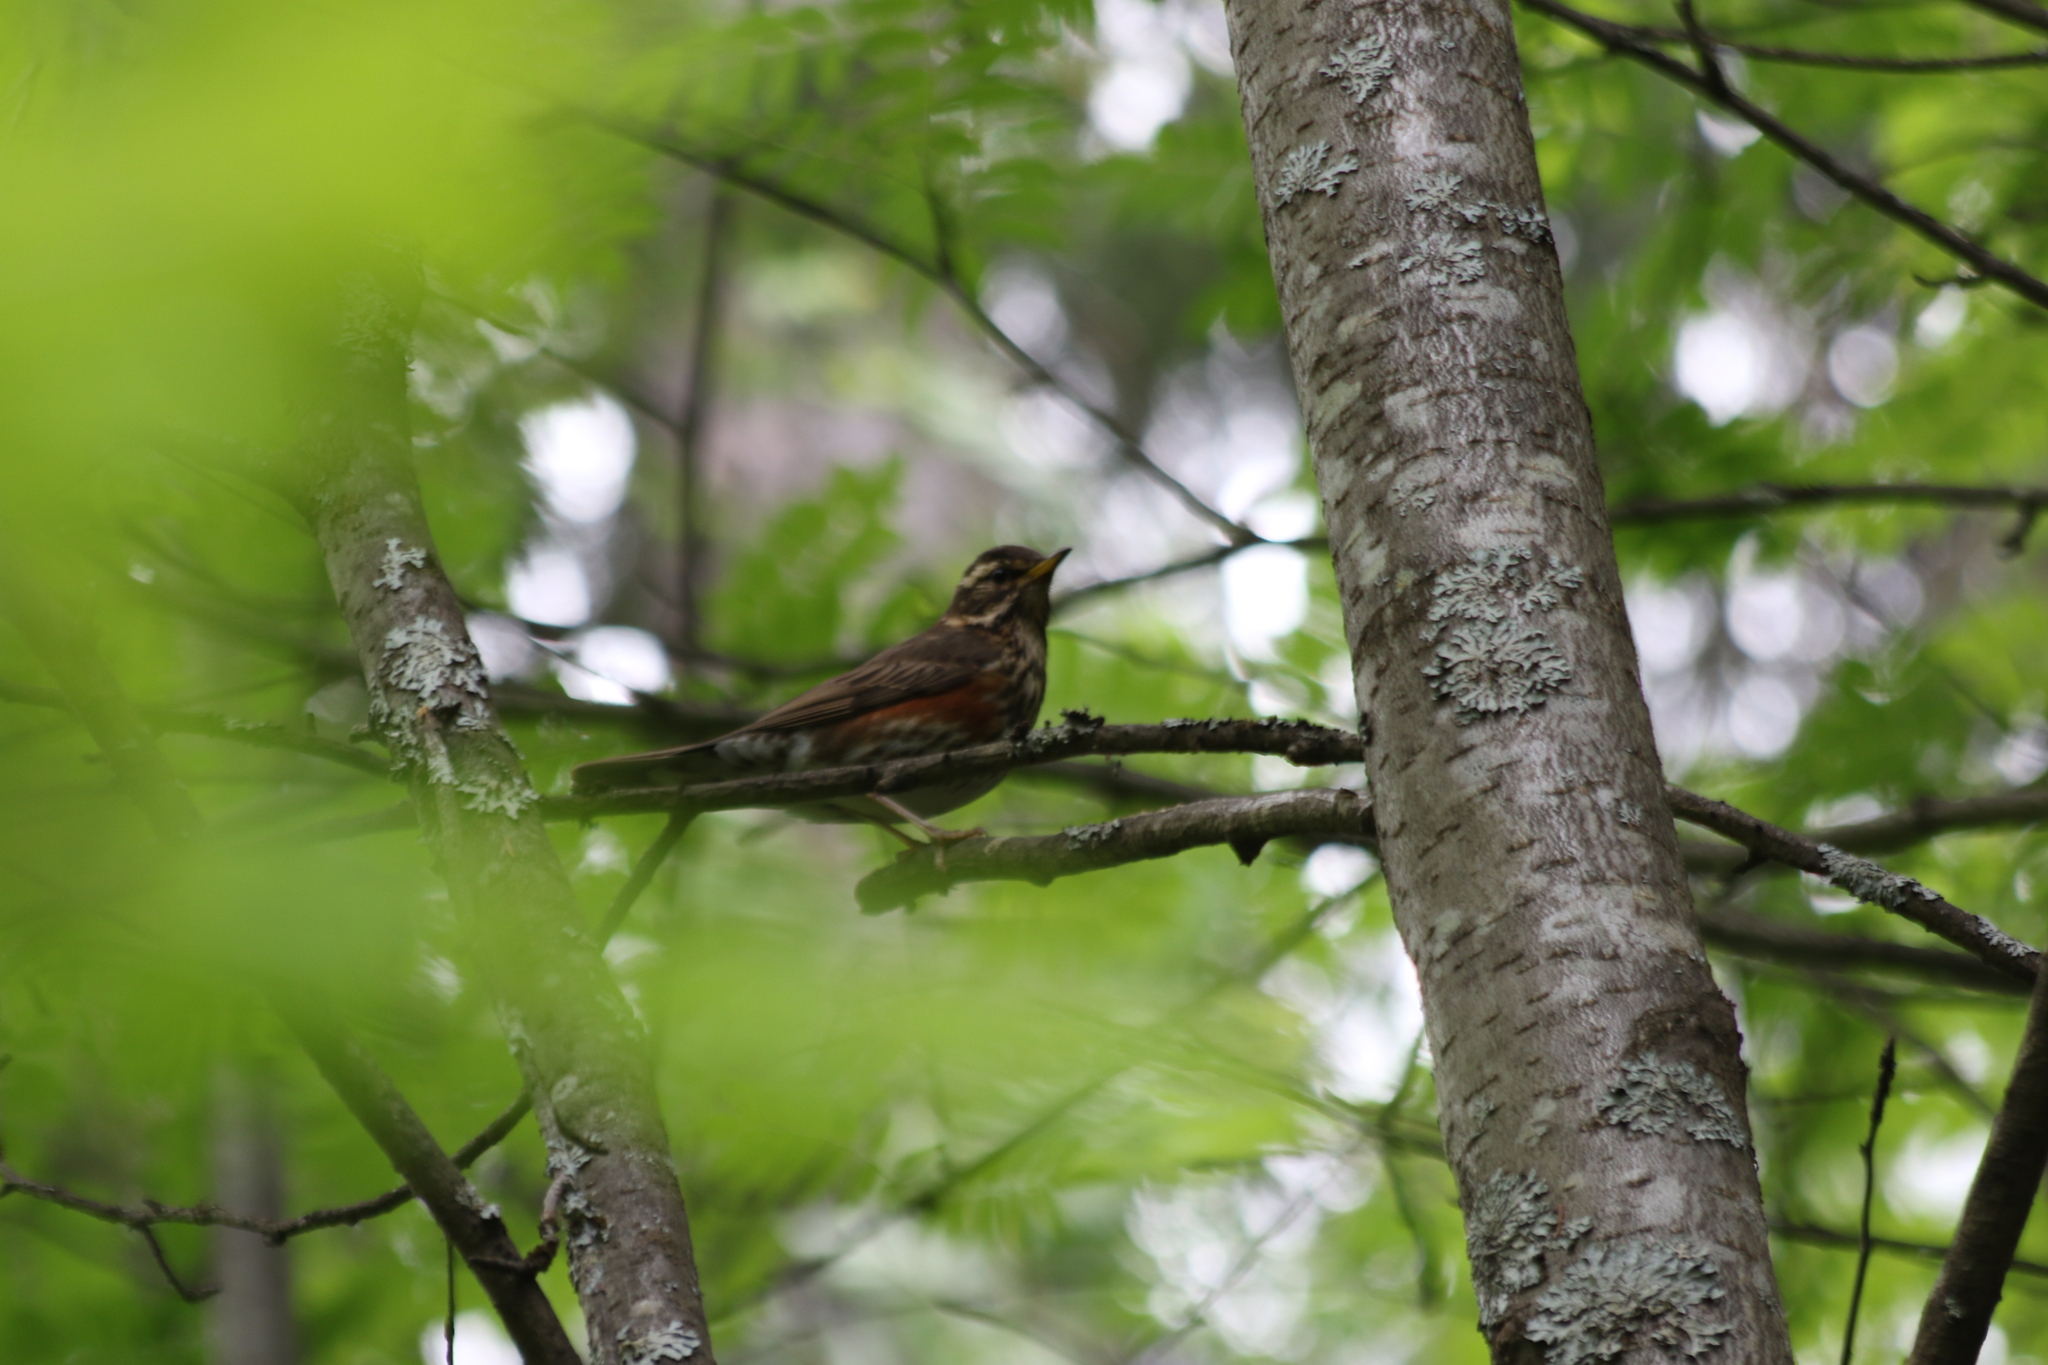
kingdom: Animalia
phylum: Chordata
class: Aves
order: Passeriformes
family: Turdidae
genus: Turdus
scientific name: Turdus iliacus
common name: Redwing
